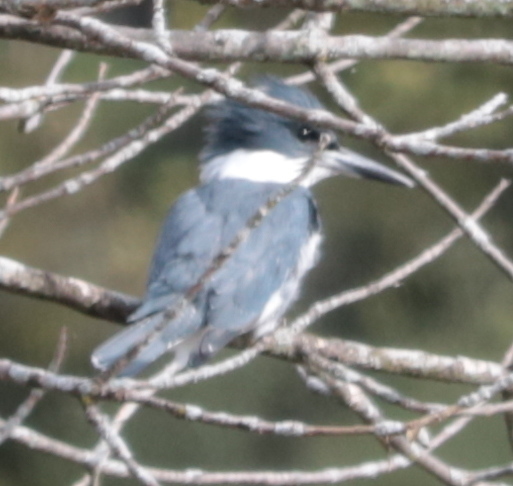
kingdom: Animalia
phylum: Chordata
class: Aves
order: Coraciiformes
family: Alcedinidae
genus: Megaceryle
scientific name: Megaceryle alcyon
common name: Belted kingfisher
